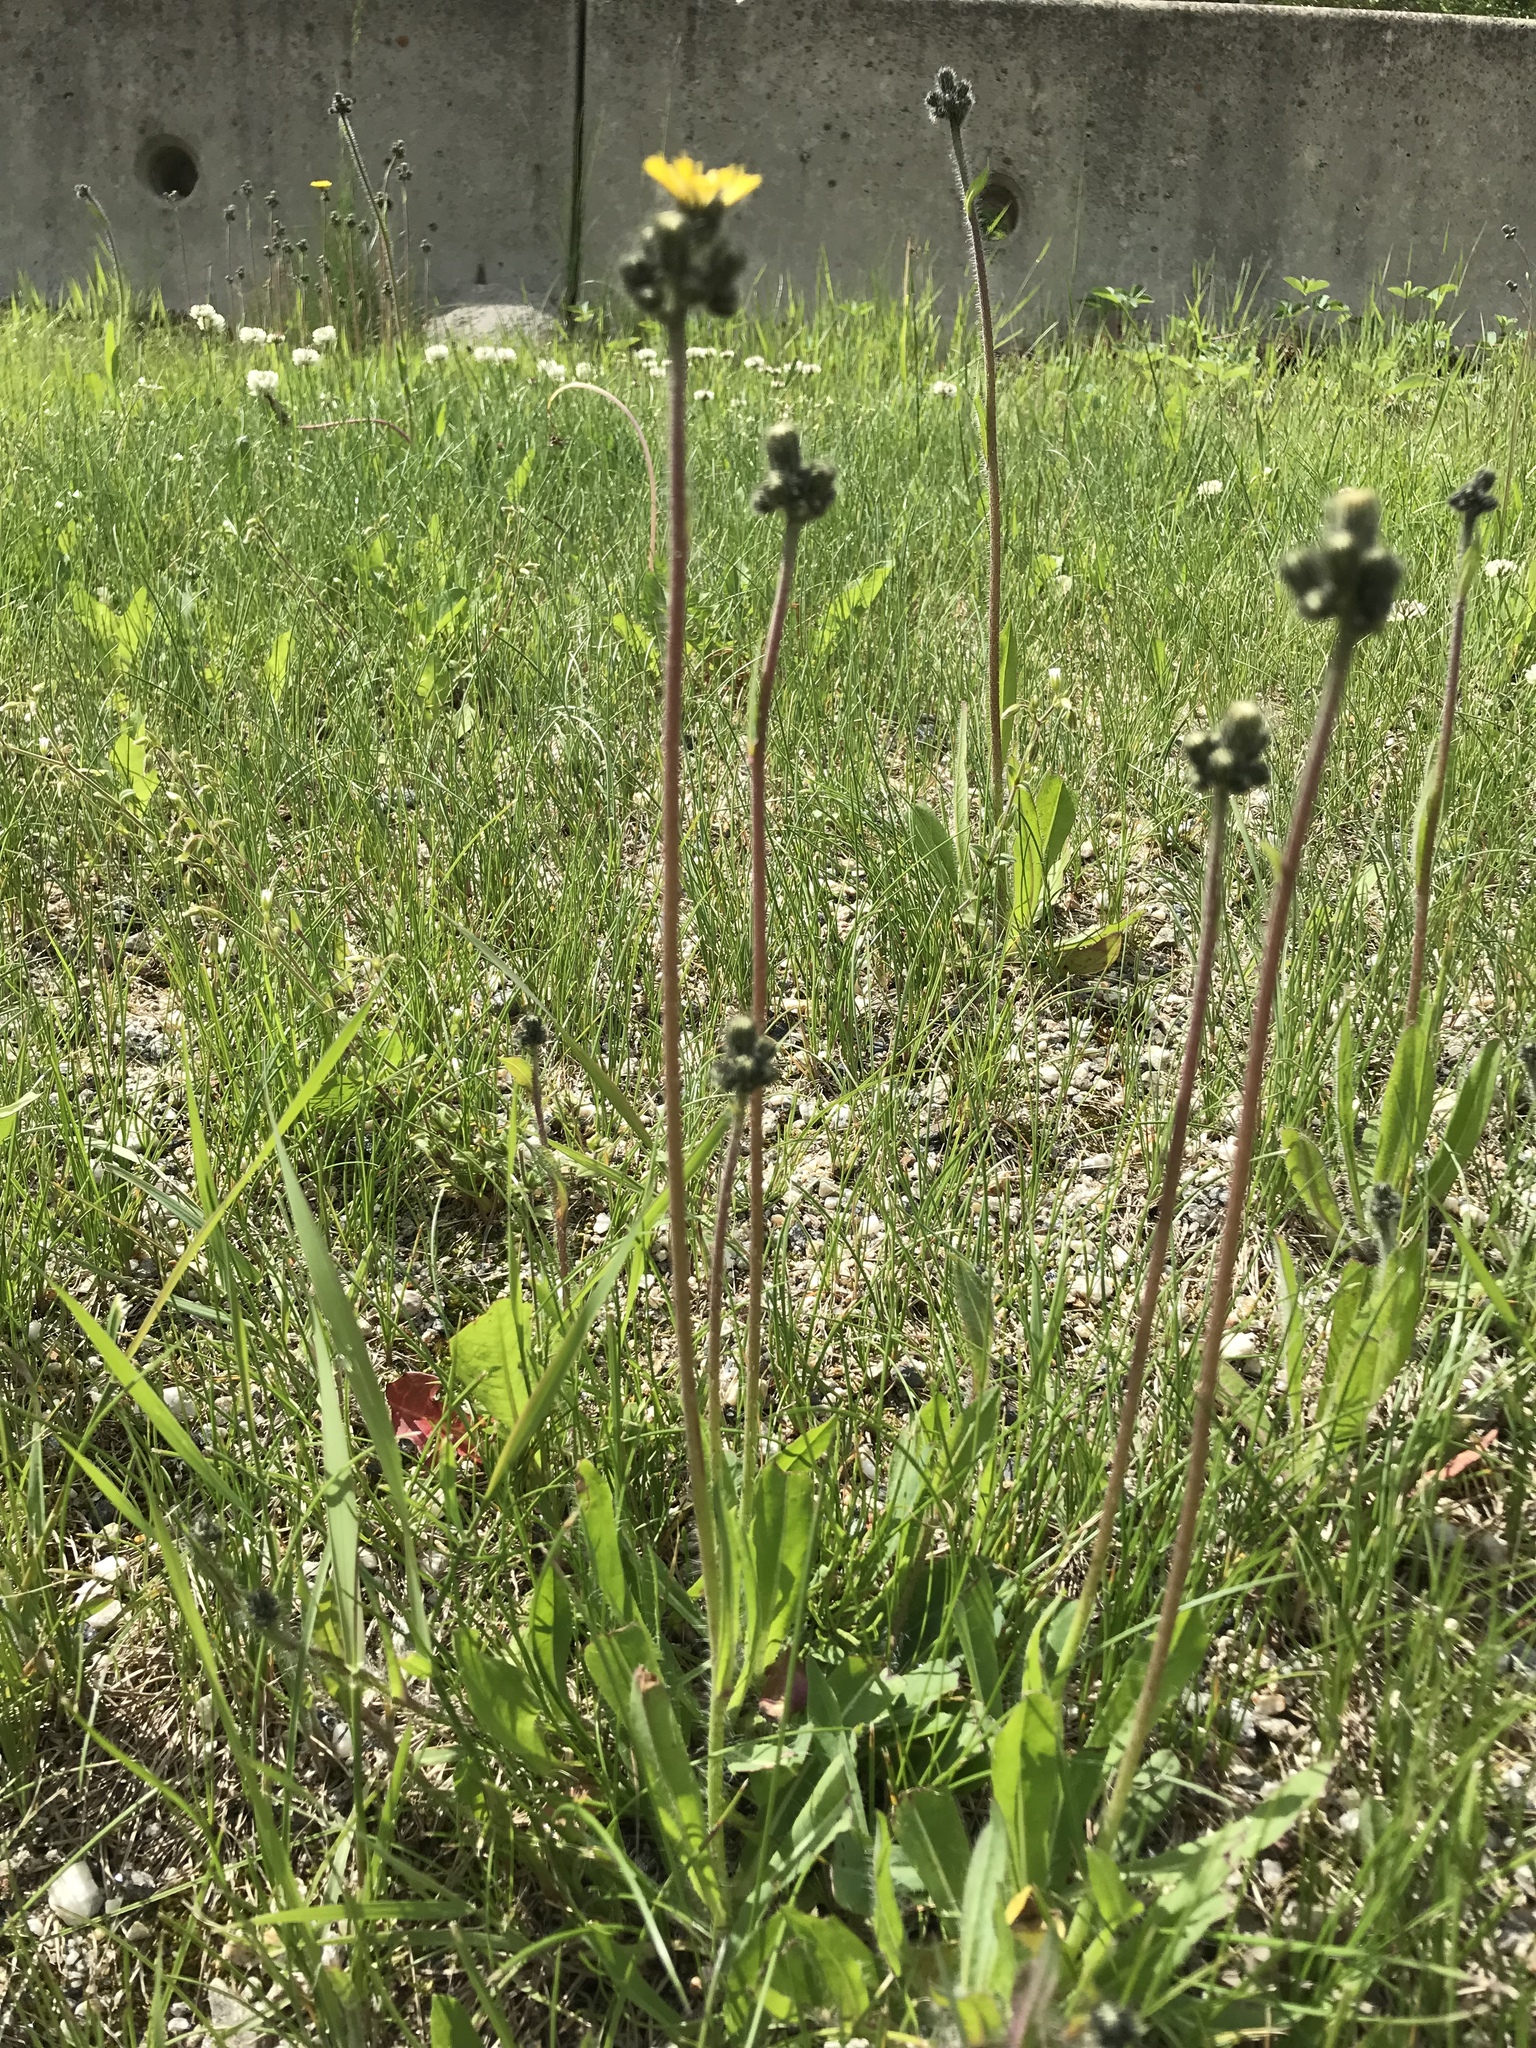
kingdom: Plantae
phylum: Tracheophyta
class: Magnoliopsida
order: Asterales
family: Asteraceae
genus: Pilosella
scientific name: Pilosella caespitosa
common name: Yellow fox-and-cubs
